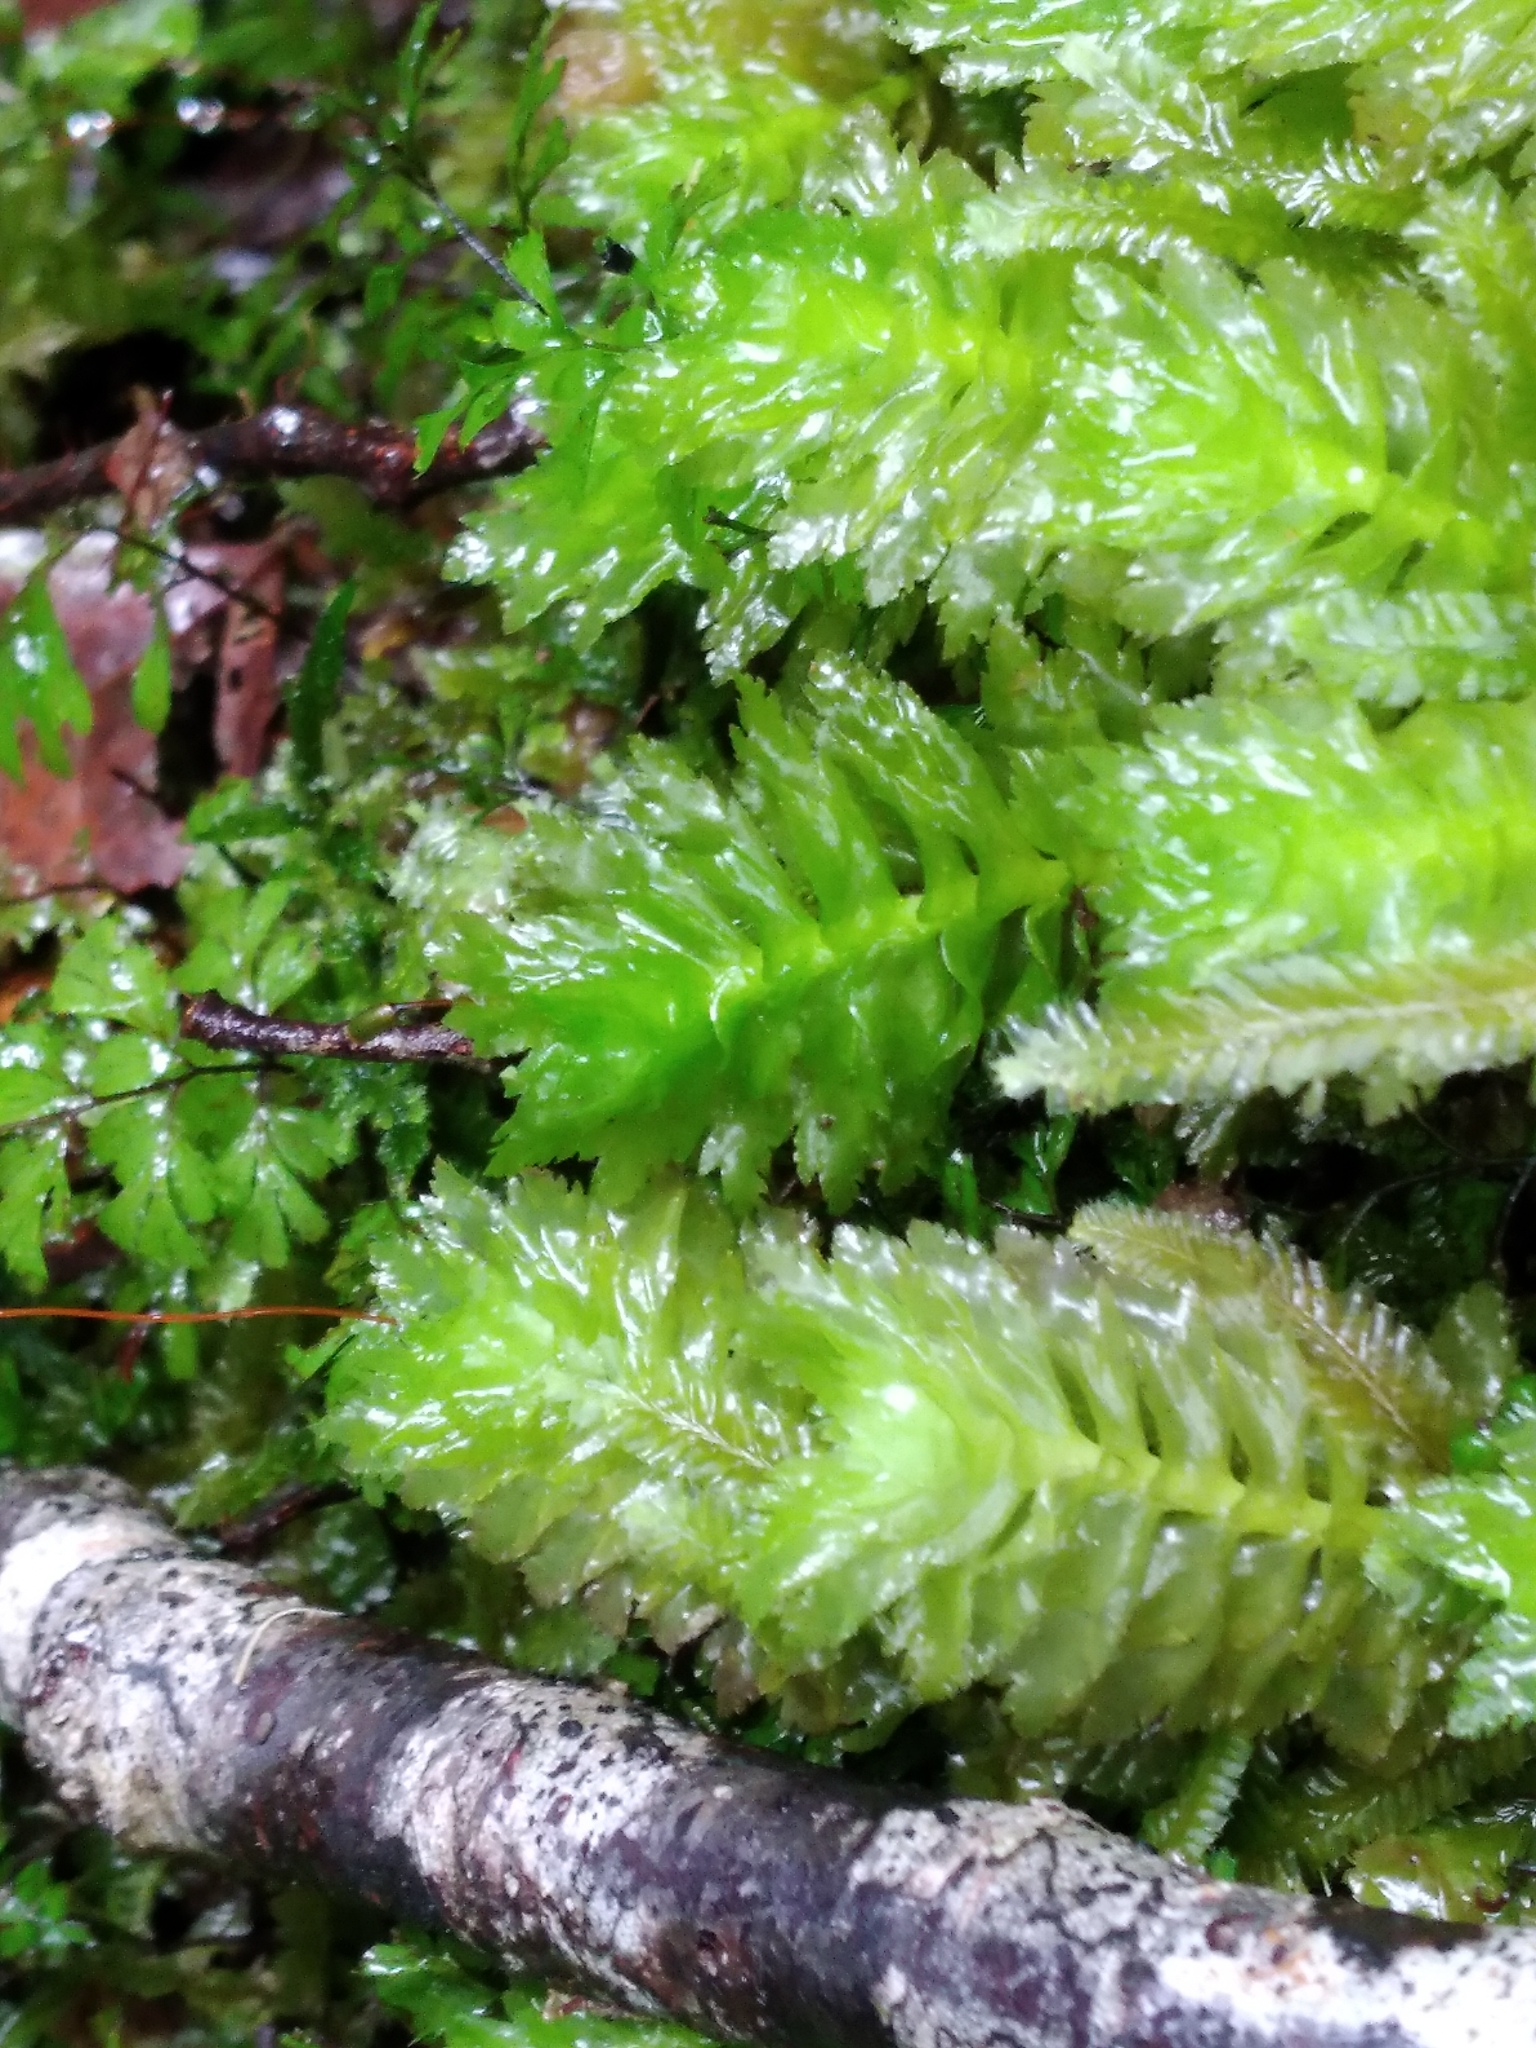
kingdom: Plantae
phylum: Marchantiophyta
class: Jungermanniopsida
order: Jungermanniales
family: Schistochilaceae
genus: Schistochila
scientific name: Schistochila appendiculata
